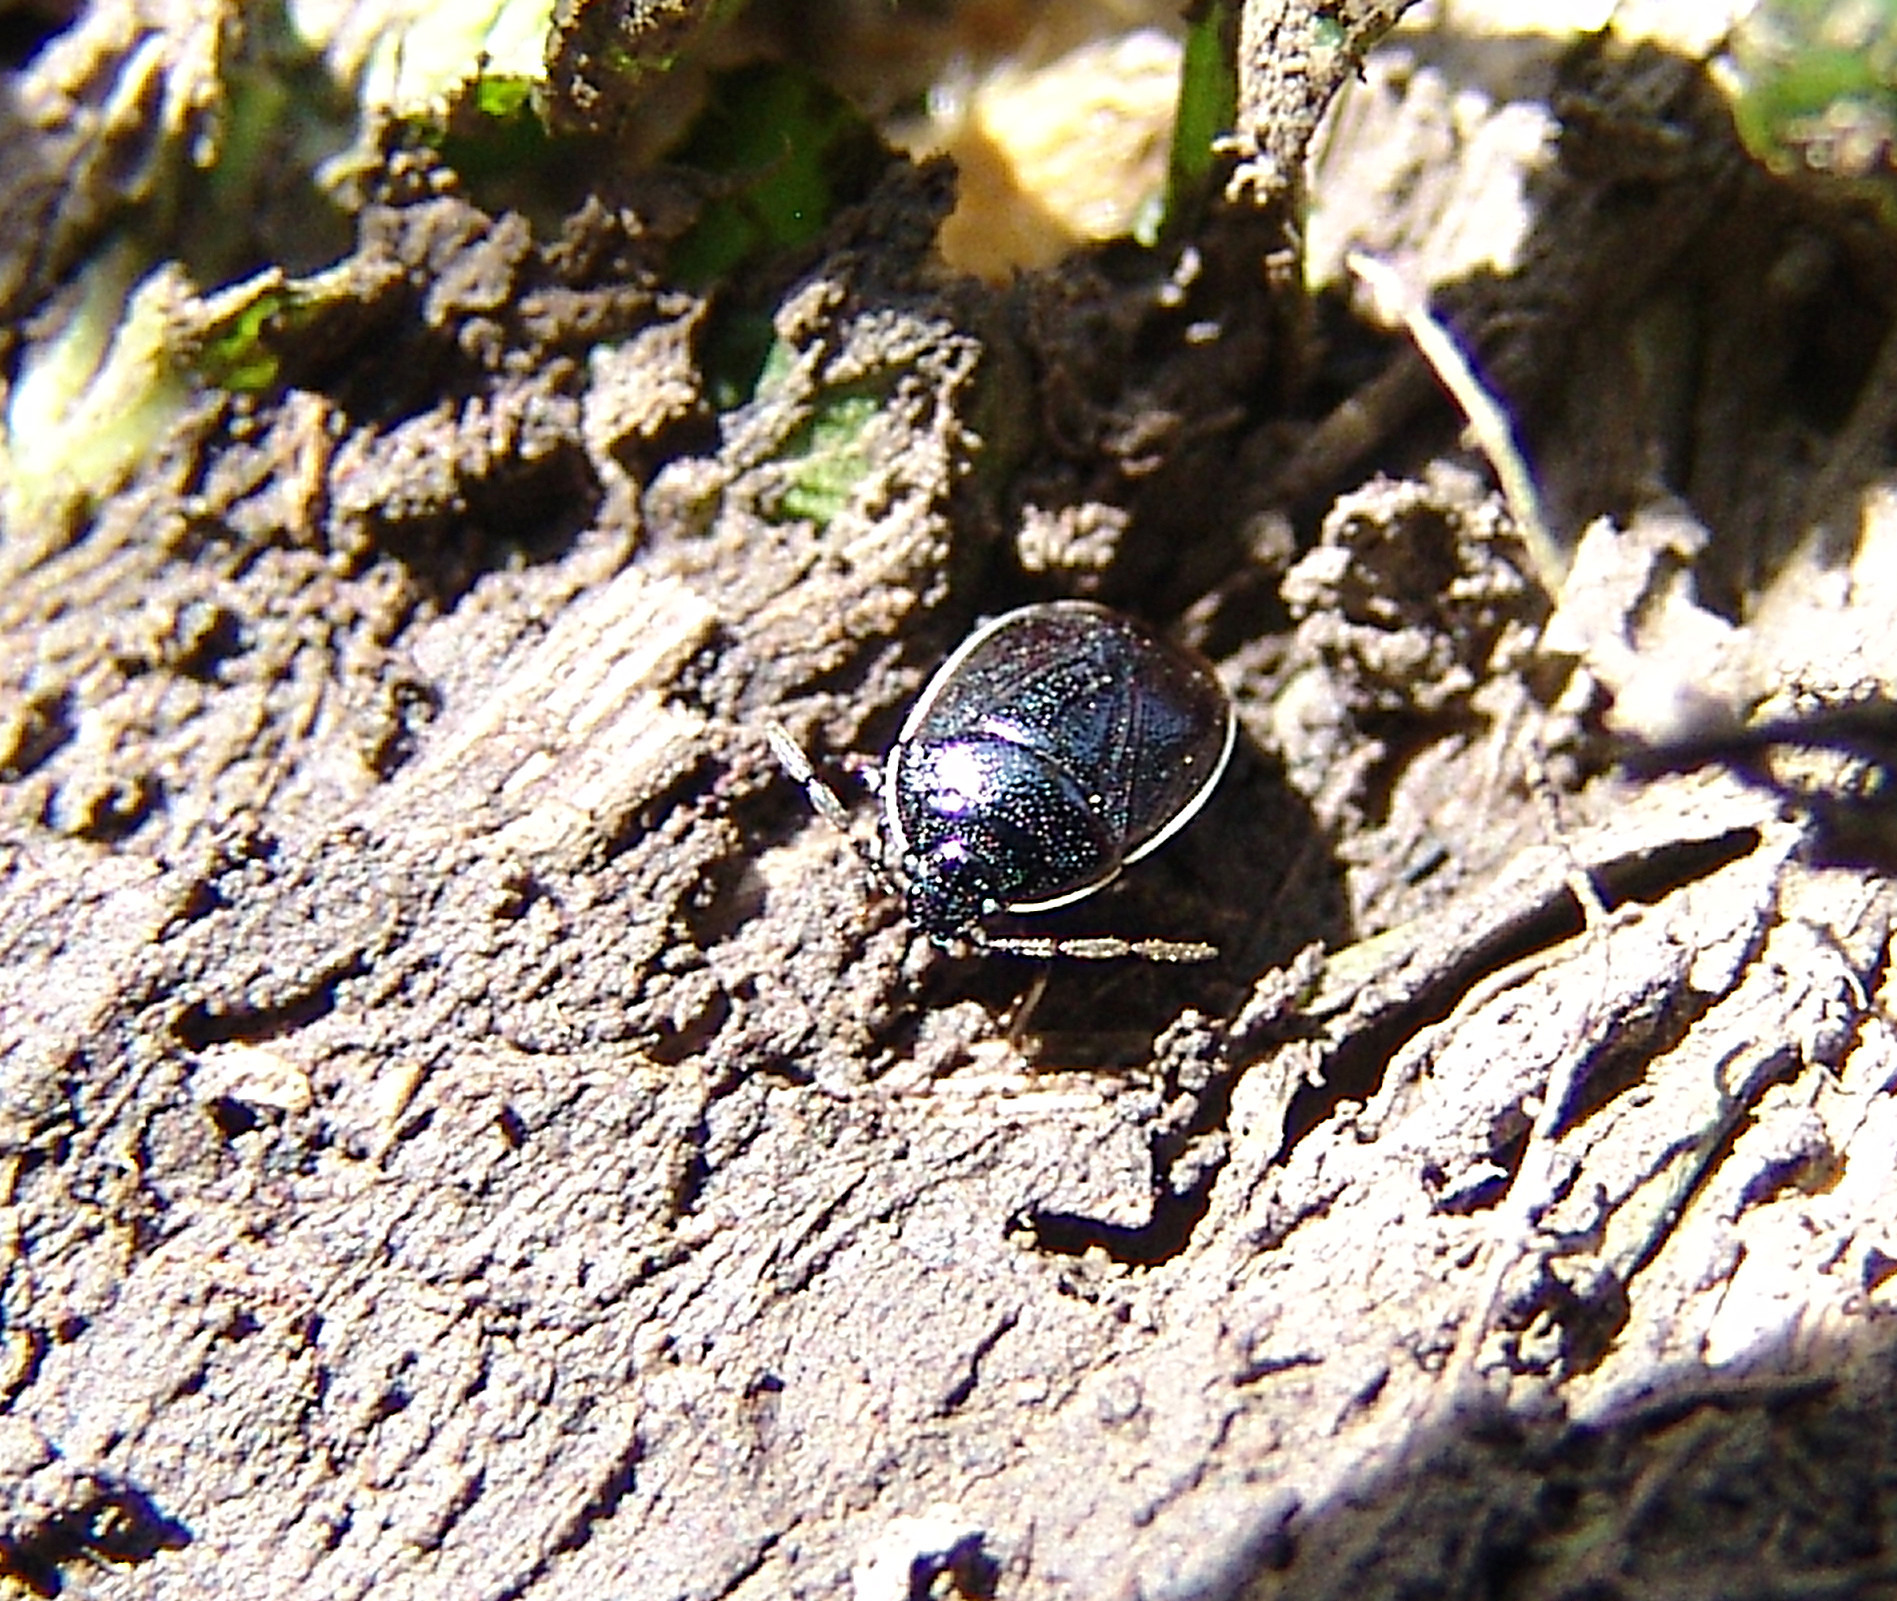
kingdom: Animalia
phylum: Arthropoda
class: Insecta
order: Hemiptera
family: Cydnidae
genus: Sehirus
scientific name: Sehirus cinctus
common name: White-margined burrower bug
